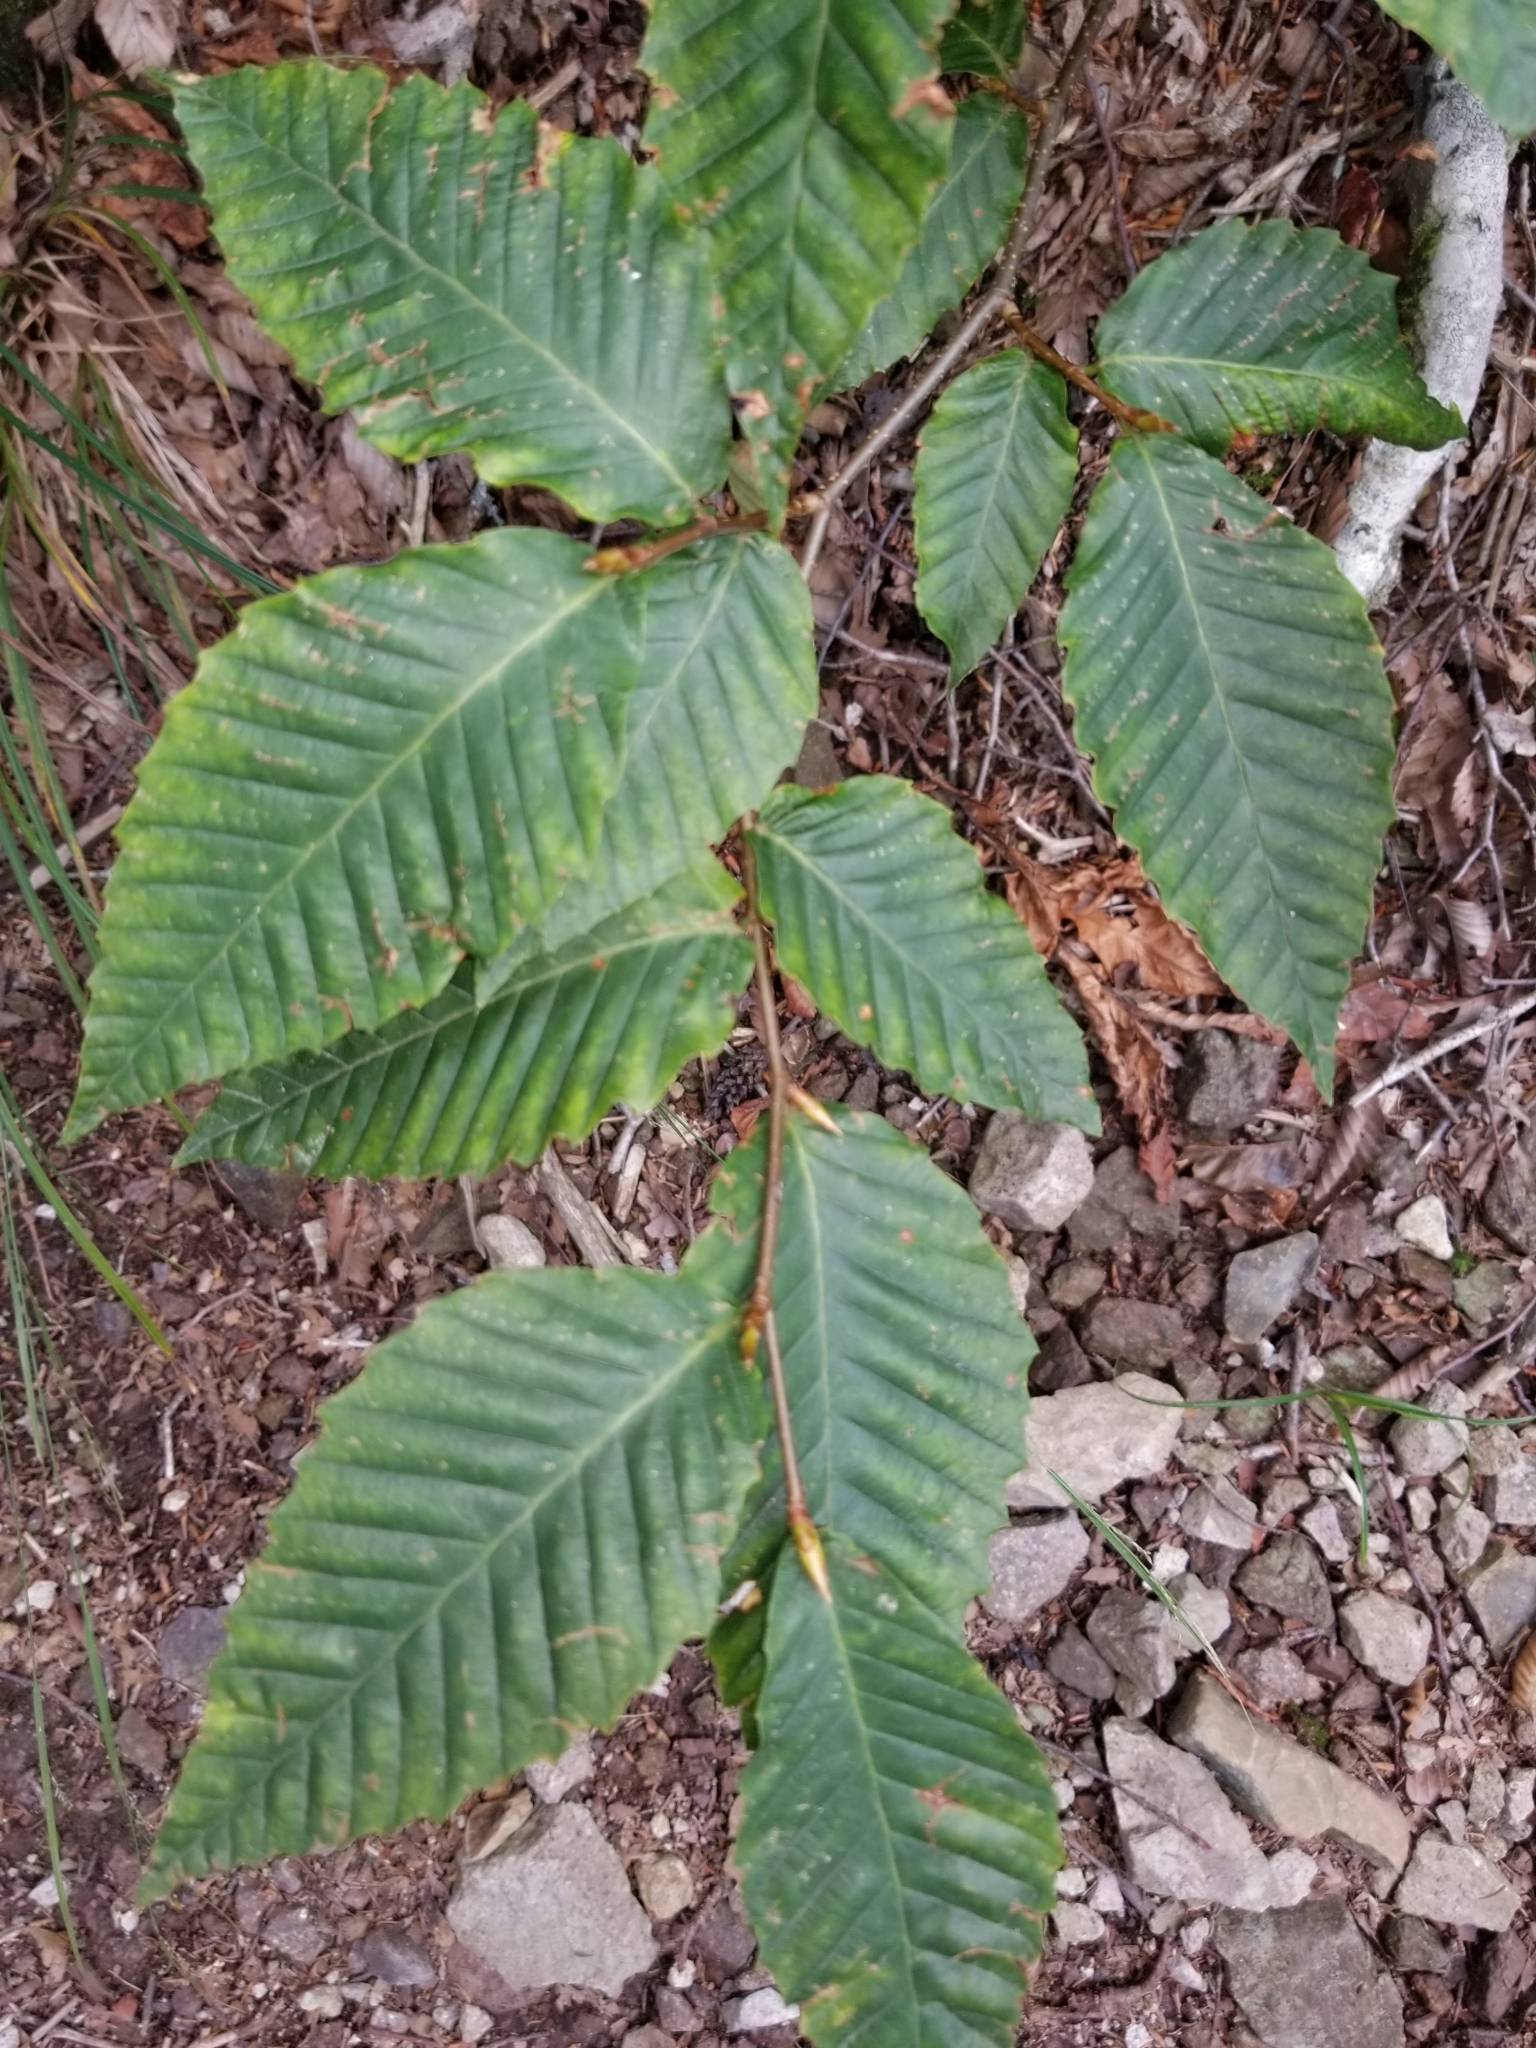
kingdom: Plantae
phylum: Tracheophyta
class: Magnoliopsida
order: Fagales
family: Fagaceae
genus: Fagus
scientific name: Fagus grandifolia
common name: American beech
